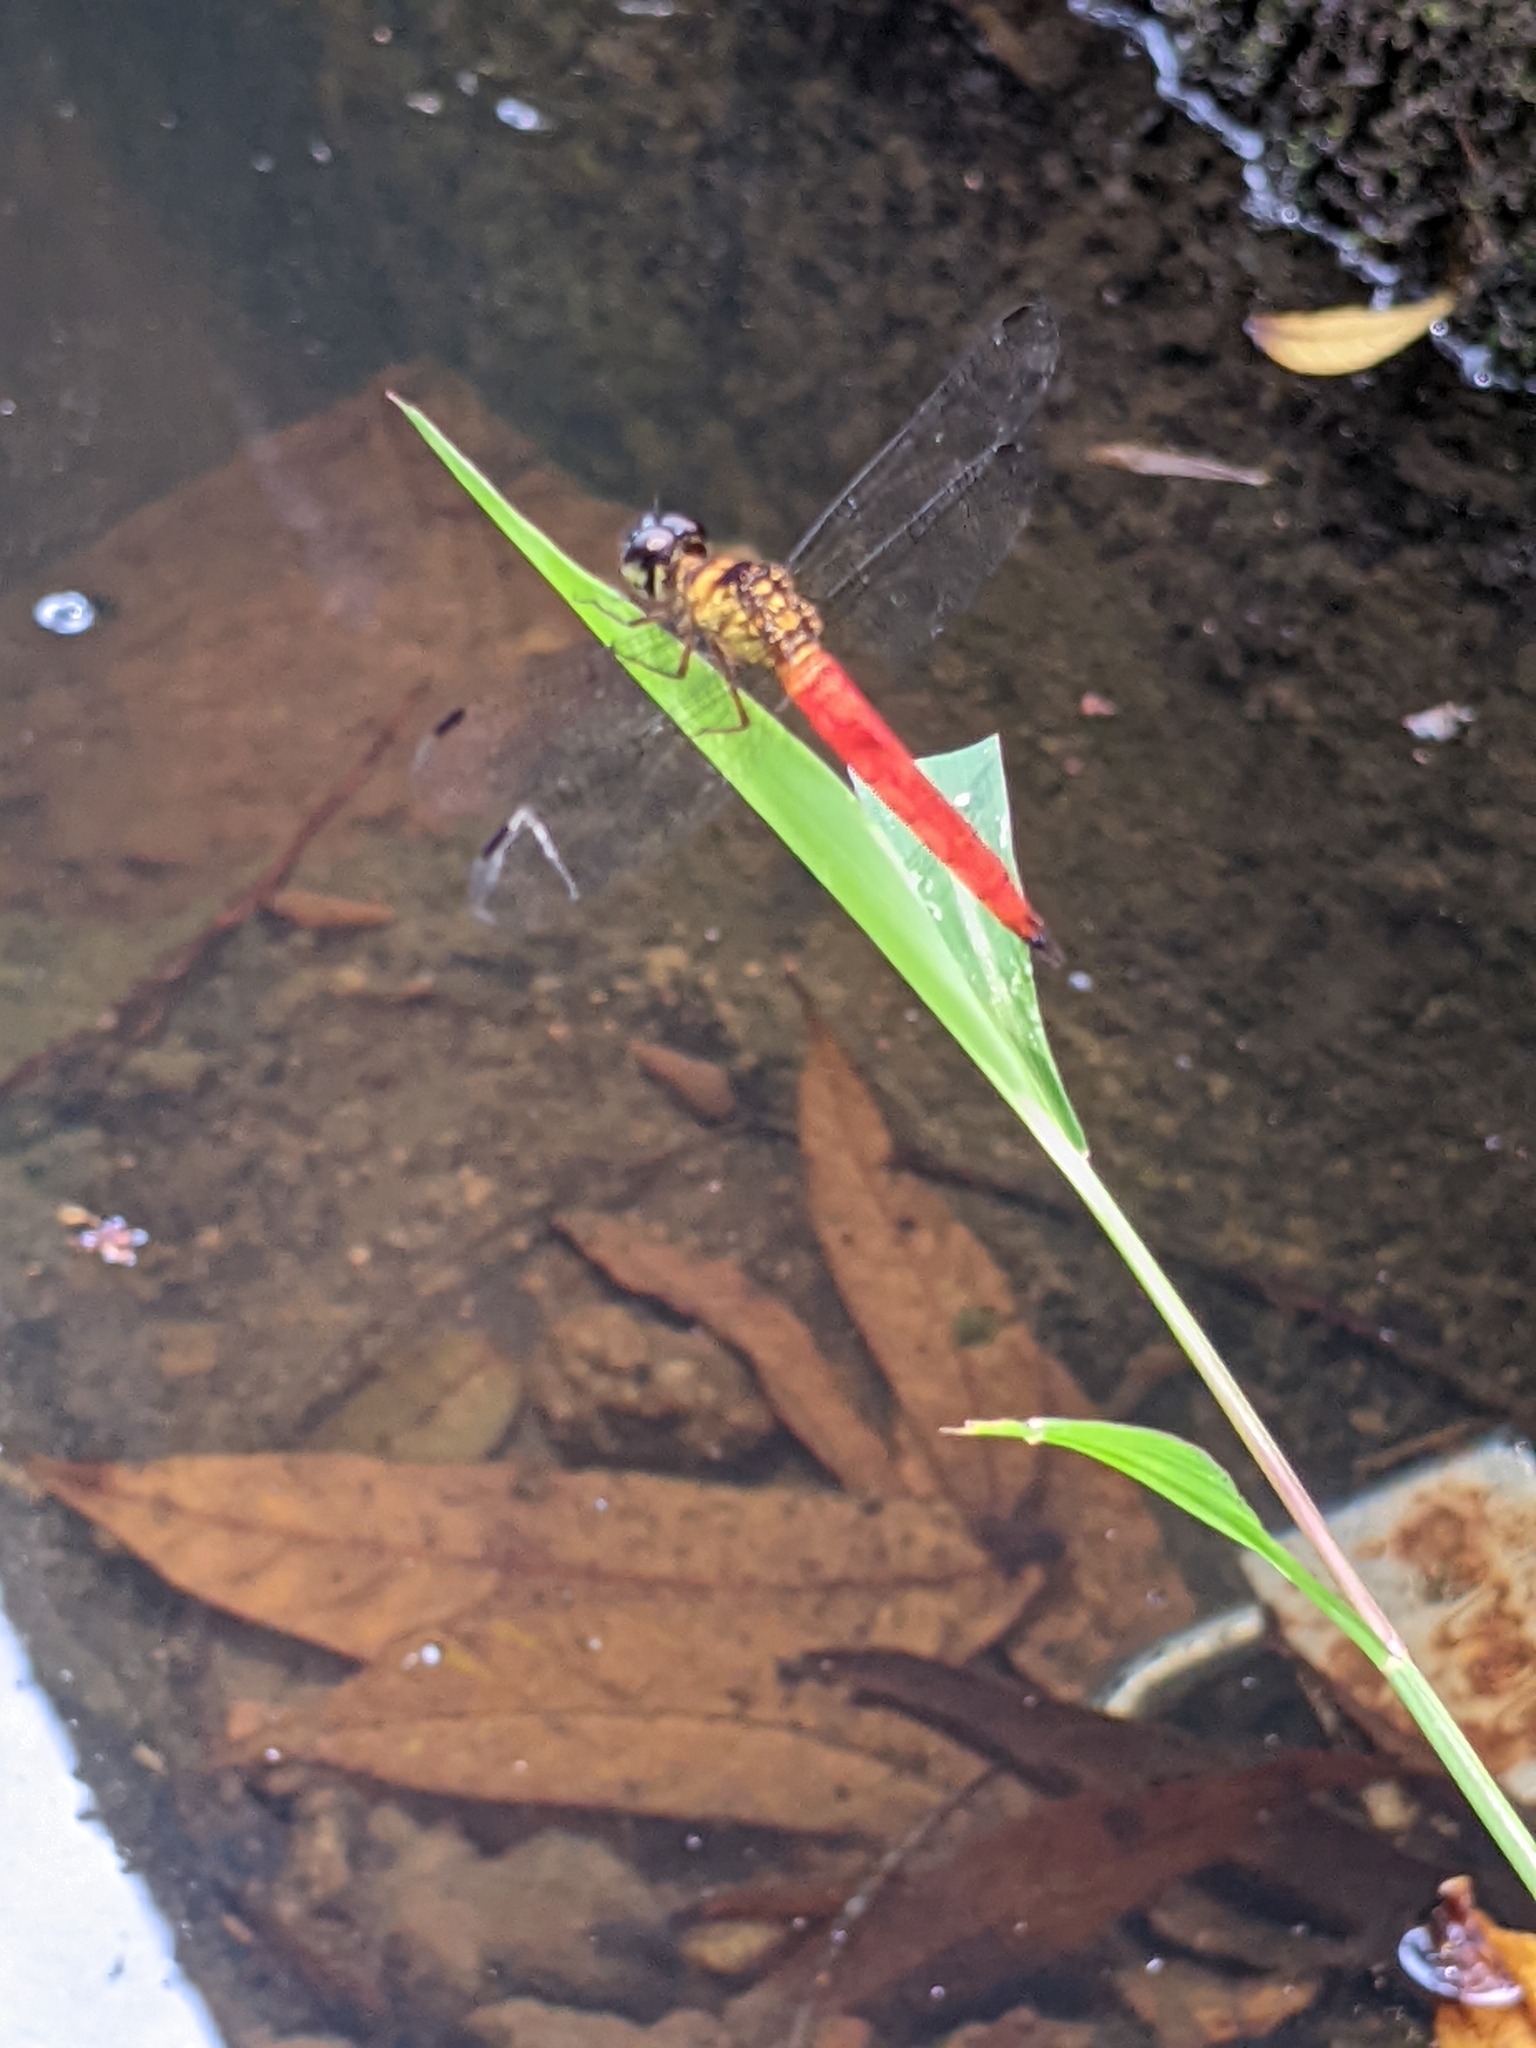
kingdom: Animalia
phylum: Arthropoda
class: Insecta
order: Odonata
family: Libellulidae
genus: Orchithemis
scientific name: Orchithemis pulcherrima
